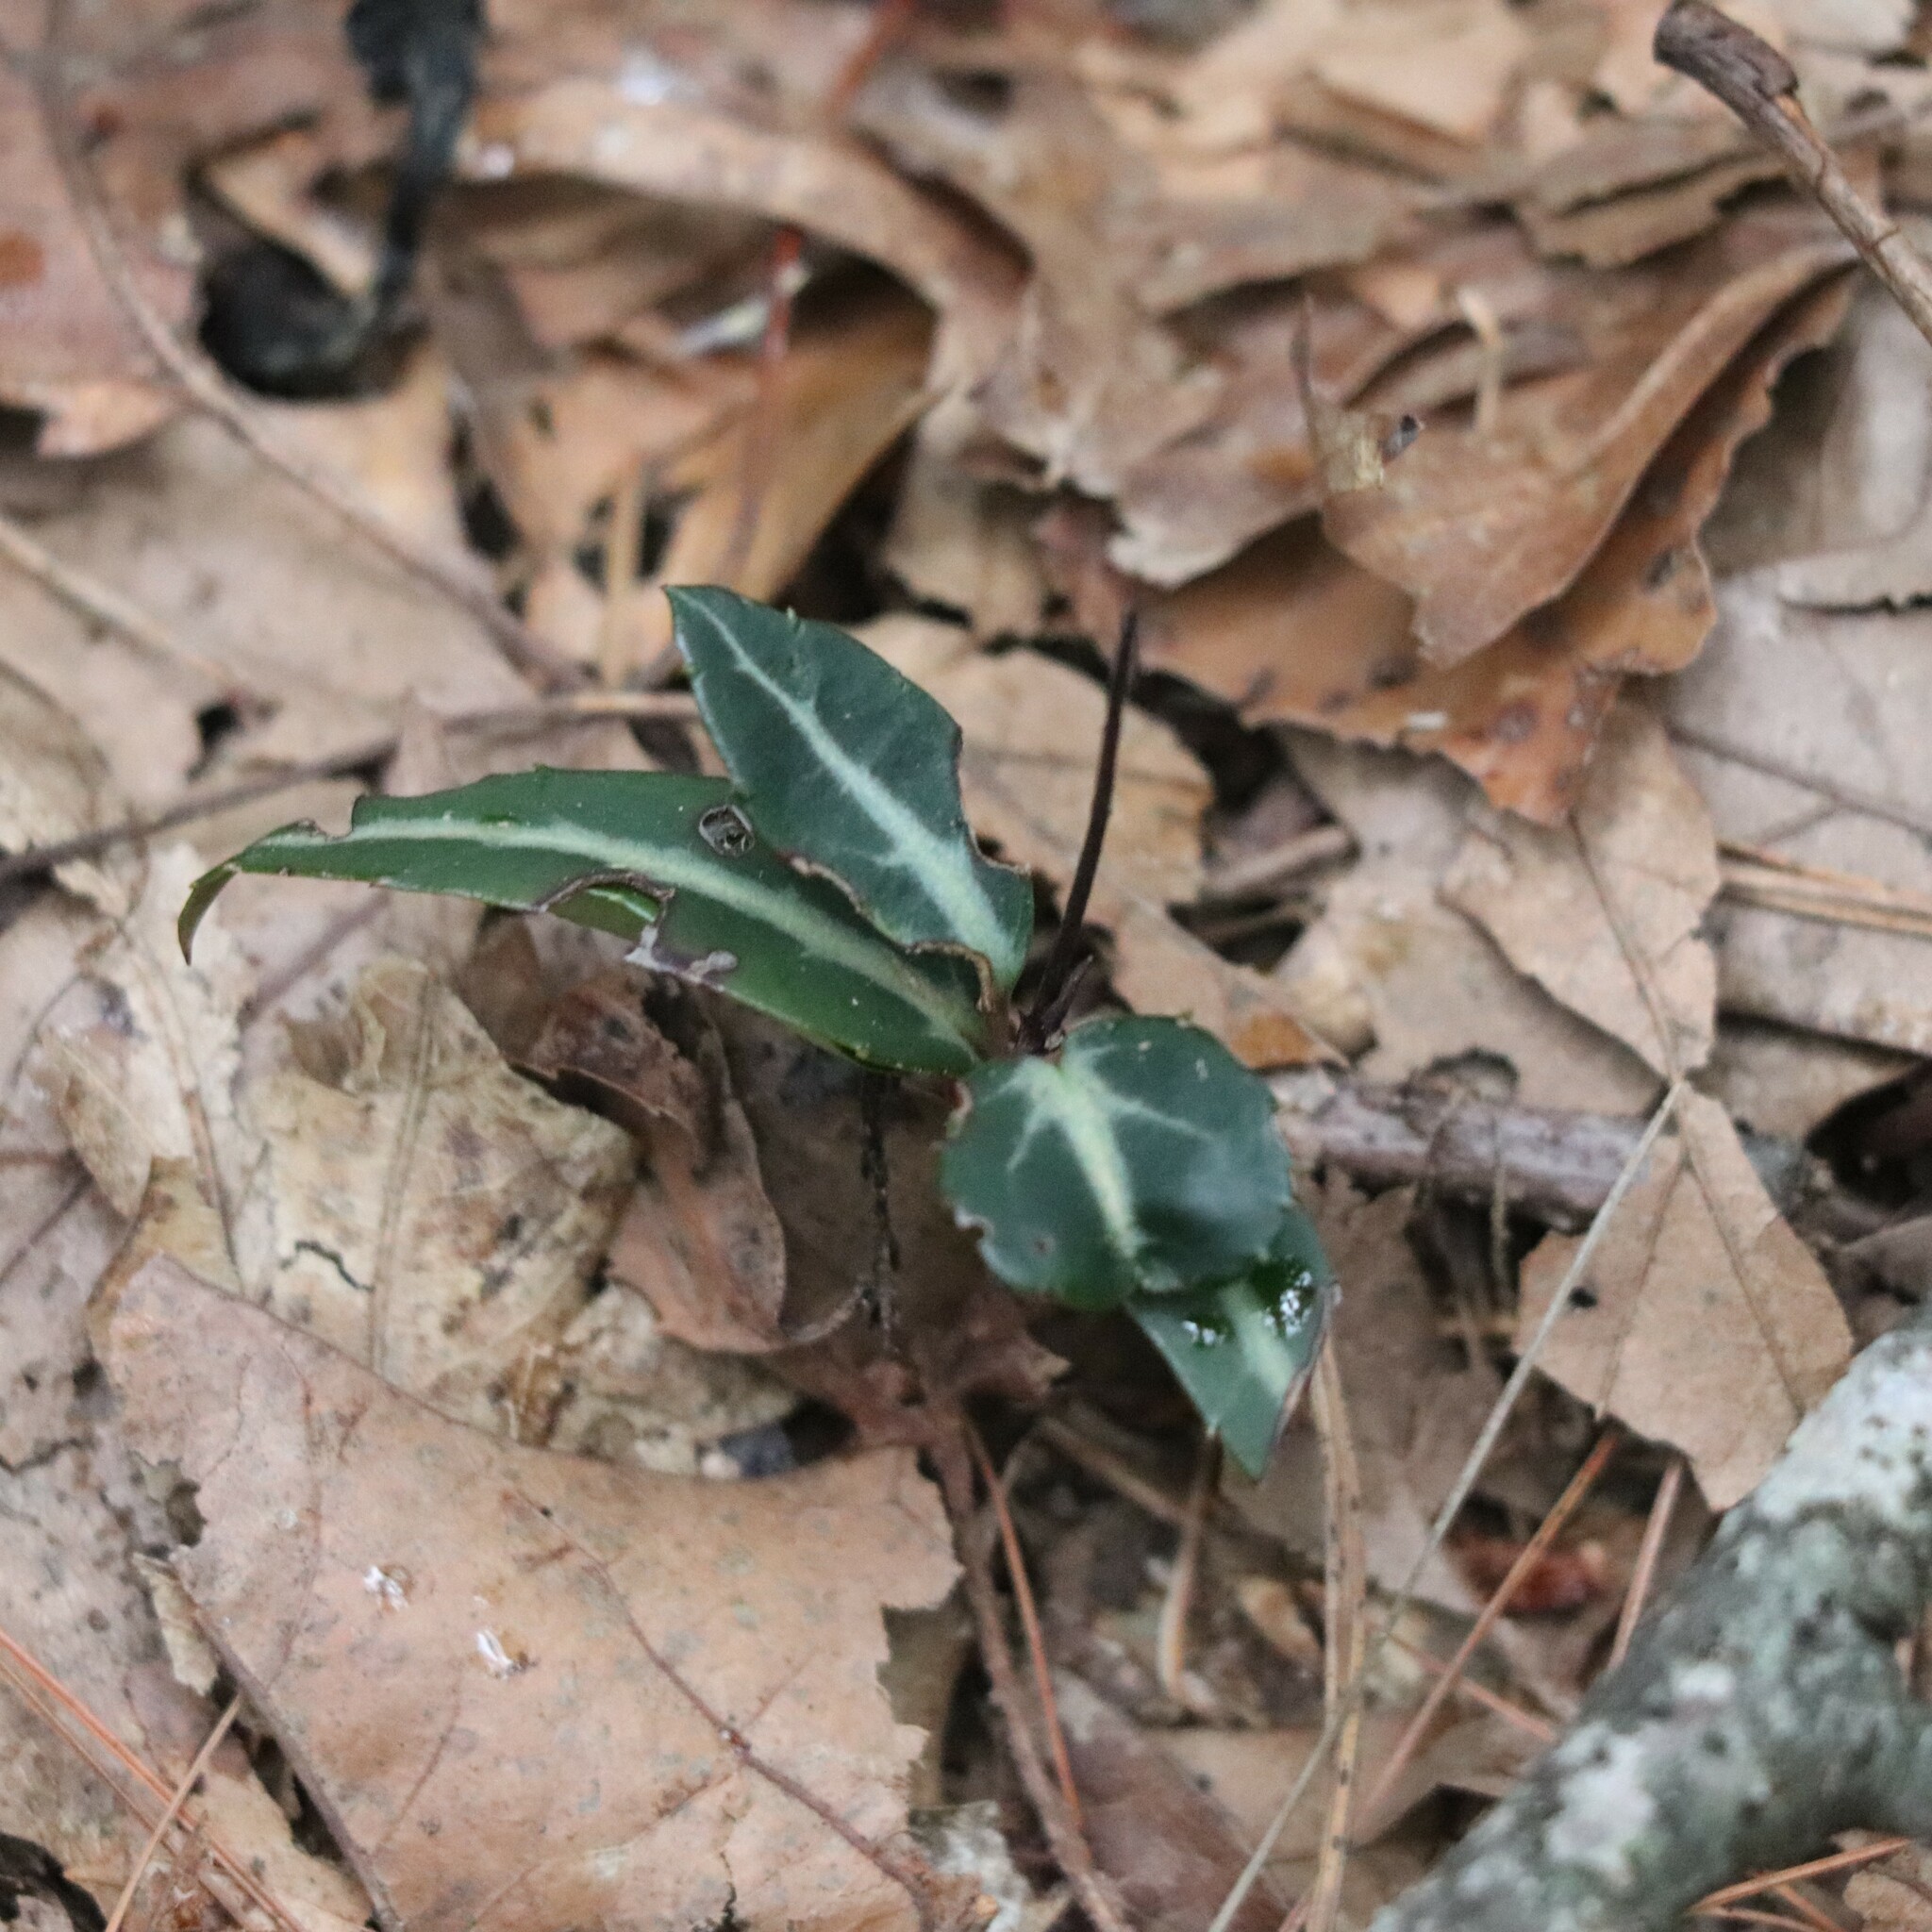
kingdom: Plantae
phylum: Tracheophyta
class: Magnoliopsida
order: Ericales
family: Ericaceae
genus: Chimaphila
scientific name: Chimaphila maculata
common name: Spotted pipsissewa
